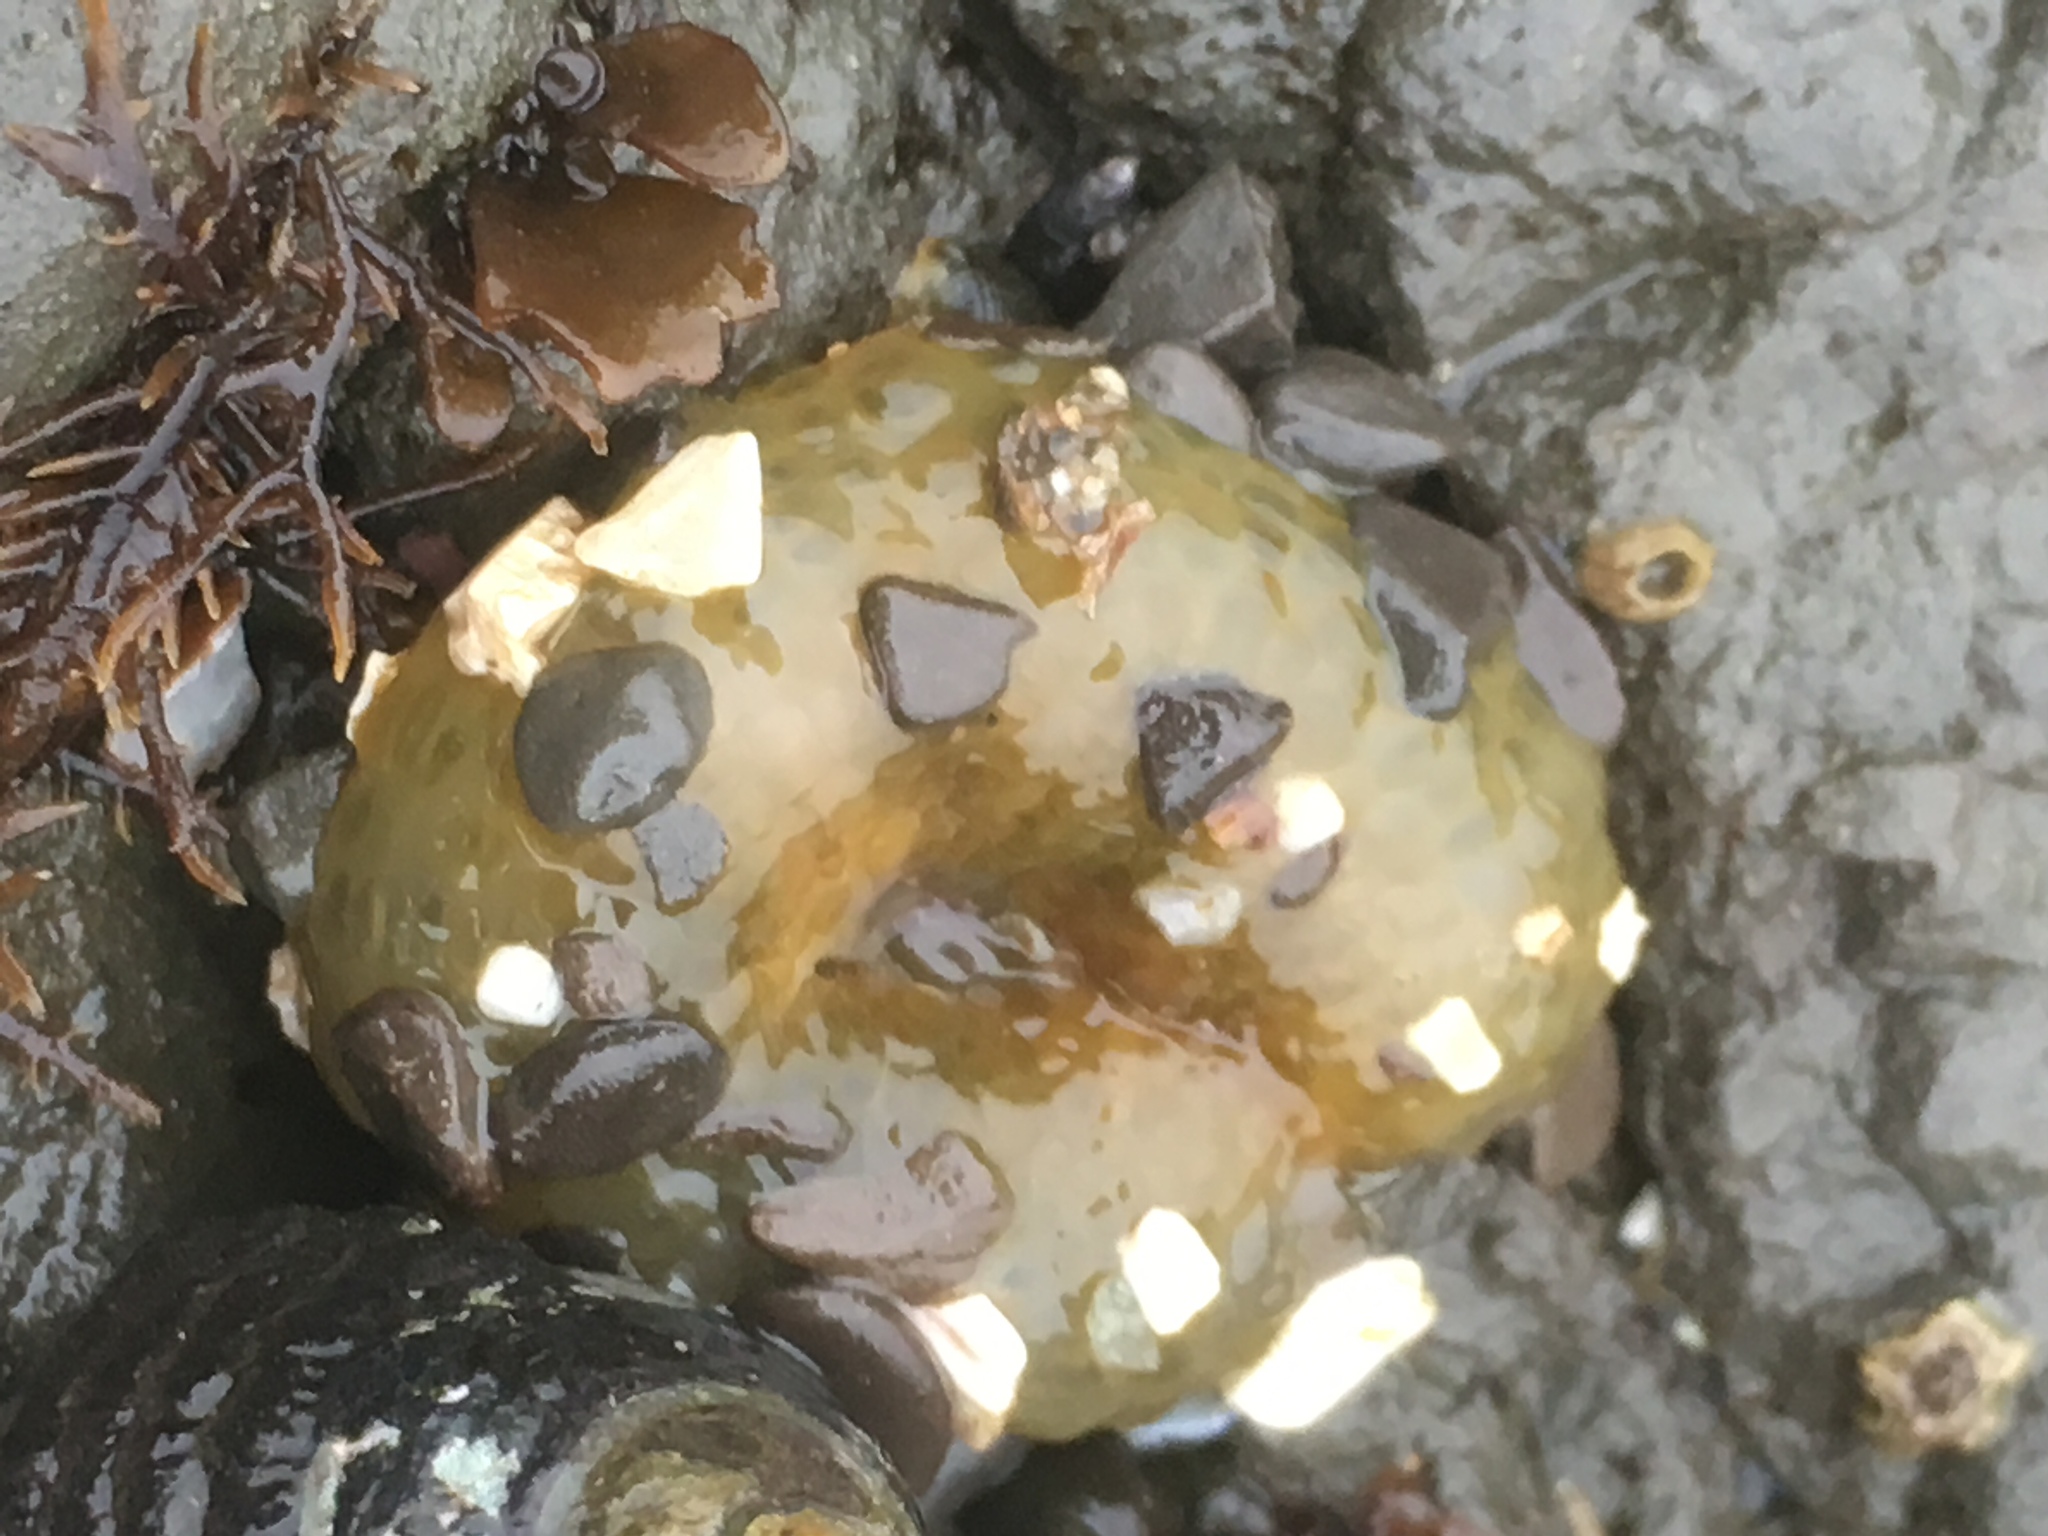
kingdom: Animalia
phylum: Cnidaria
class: Anthozoa
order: Actiniaria
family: Actiniidae
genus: Anthopleura
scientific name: Anthopleura elegantissima
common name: Clonal anemone
